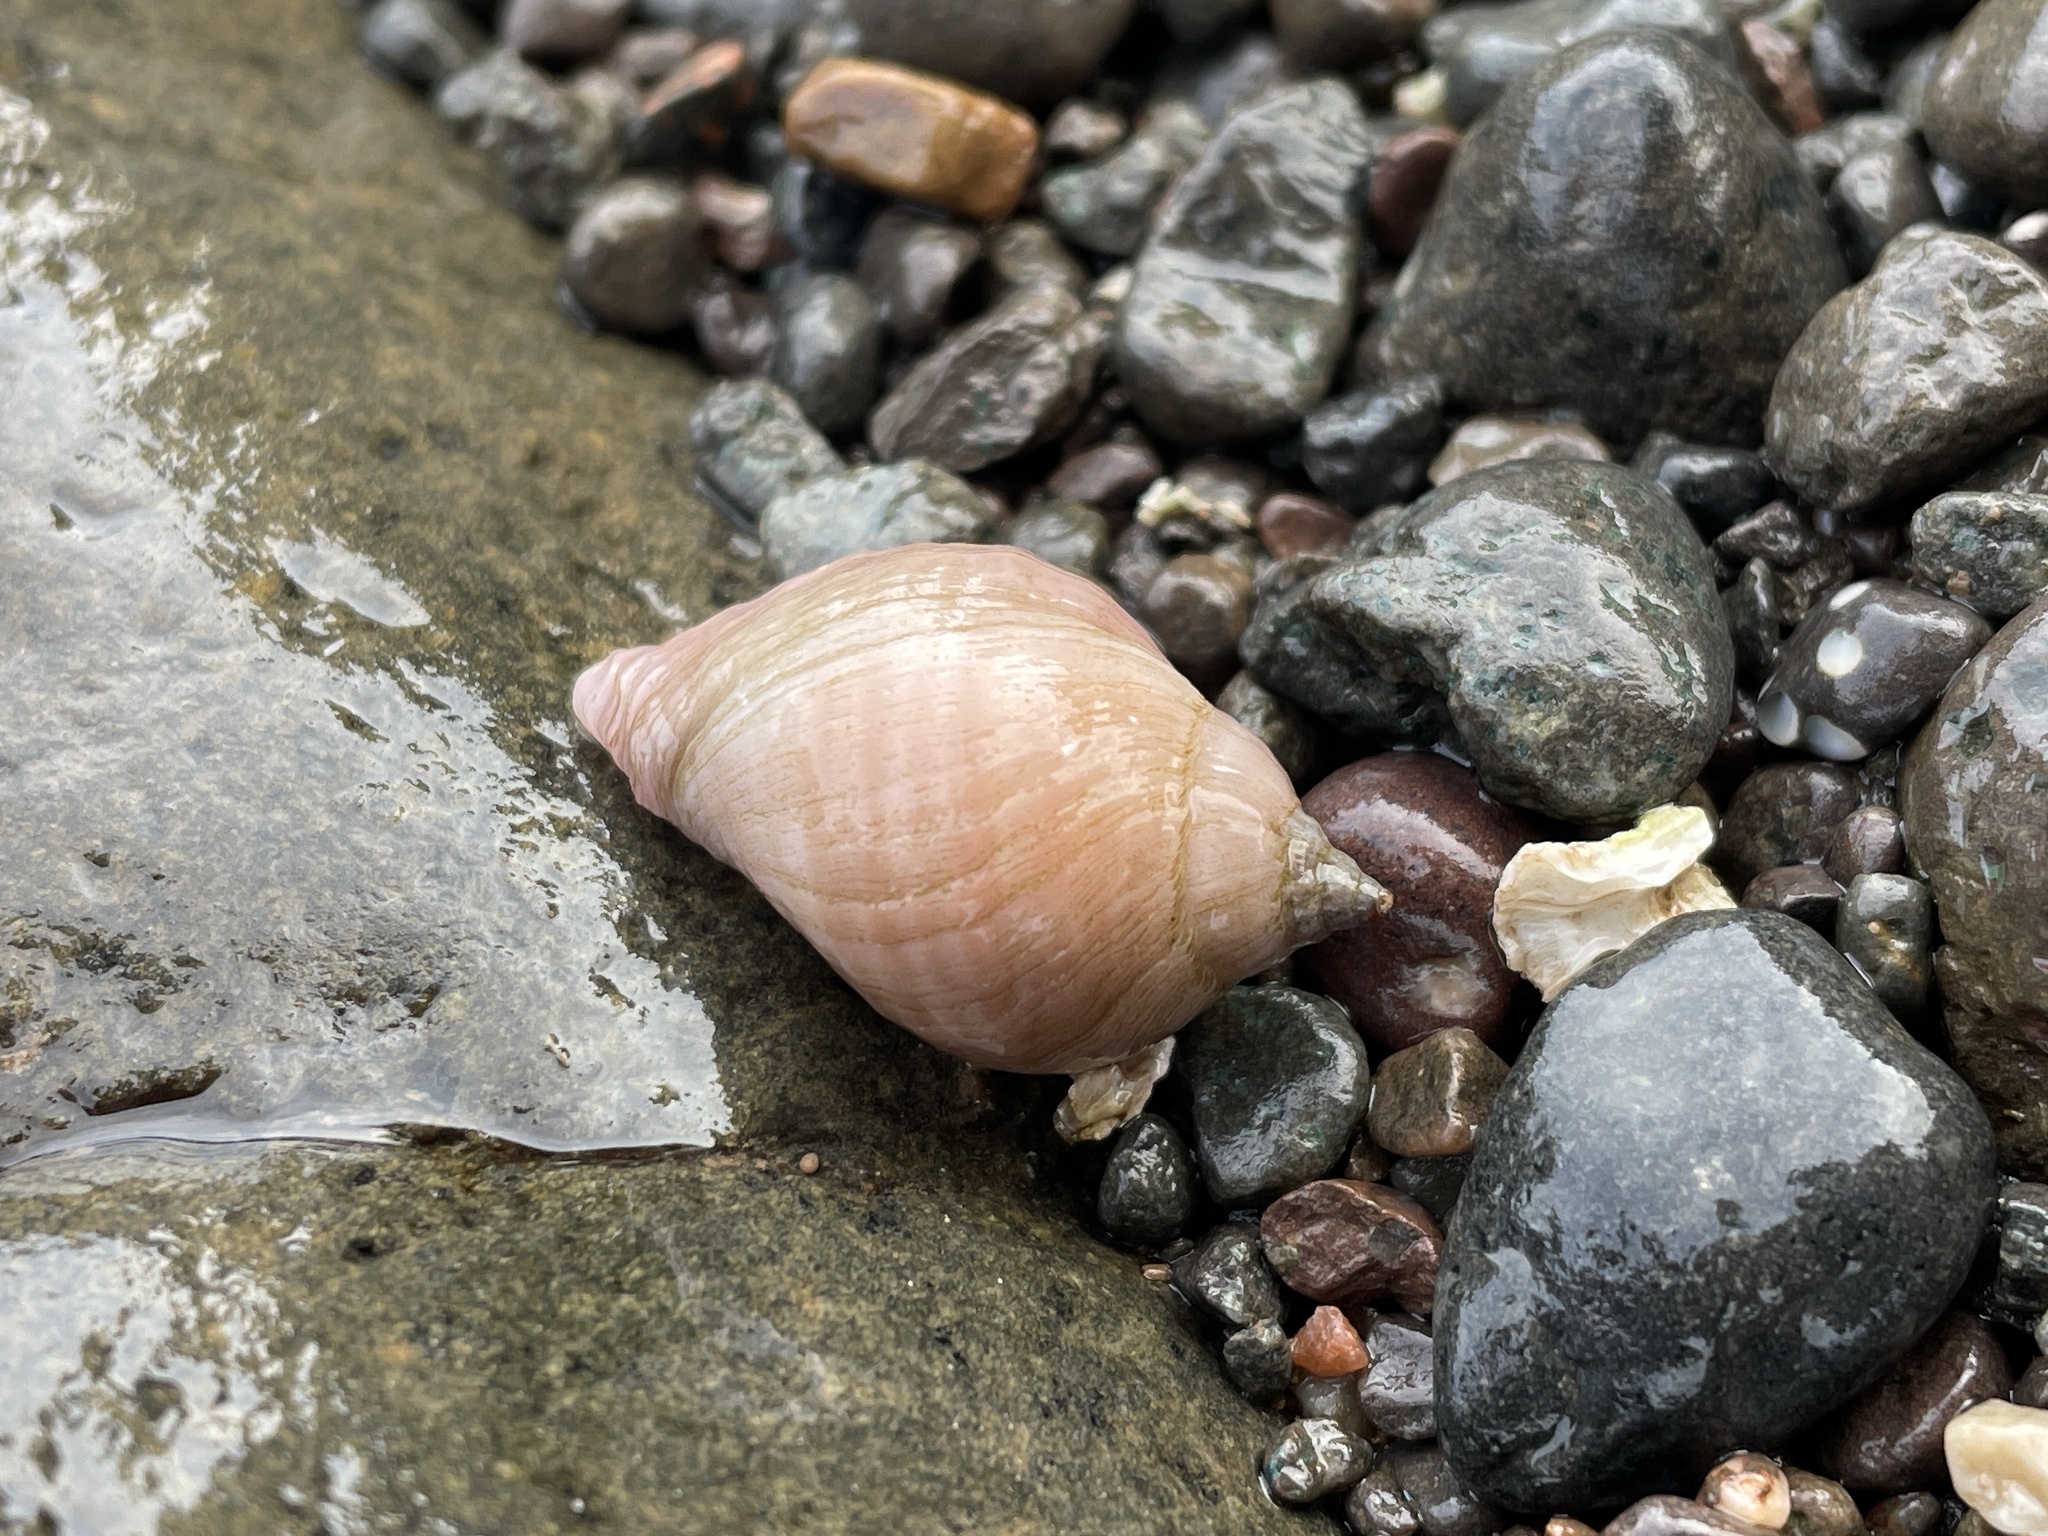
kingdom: Animalia
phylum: Mollusca
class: Gastropoda
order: Neogastropoda
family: Muricidae
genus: Nucella
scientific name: Nucella lapillus
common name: Dog whelk
